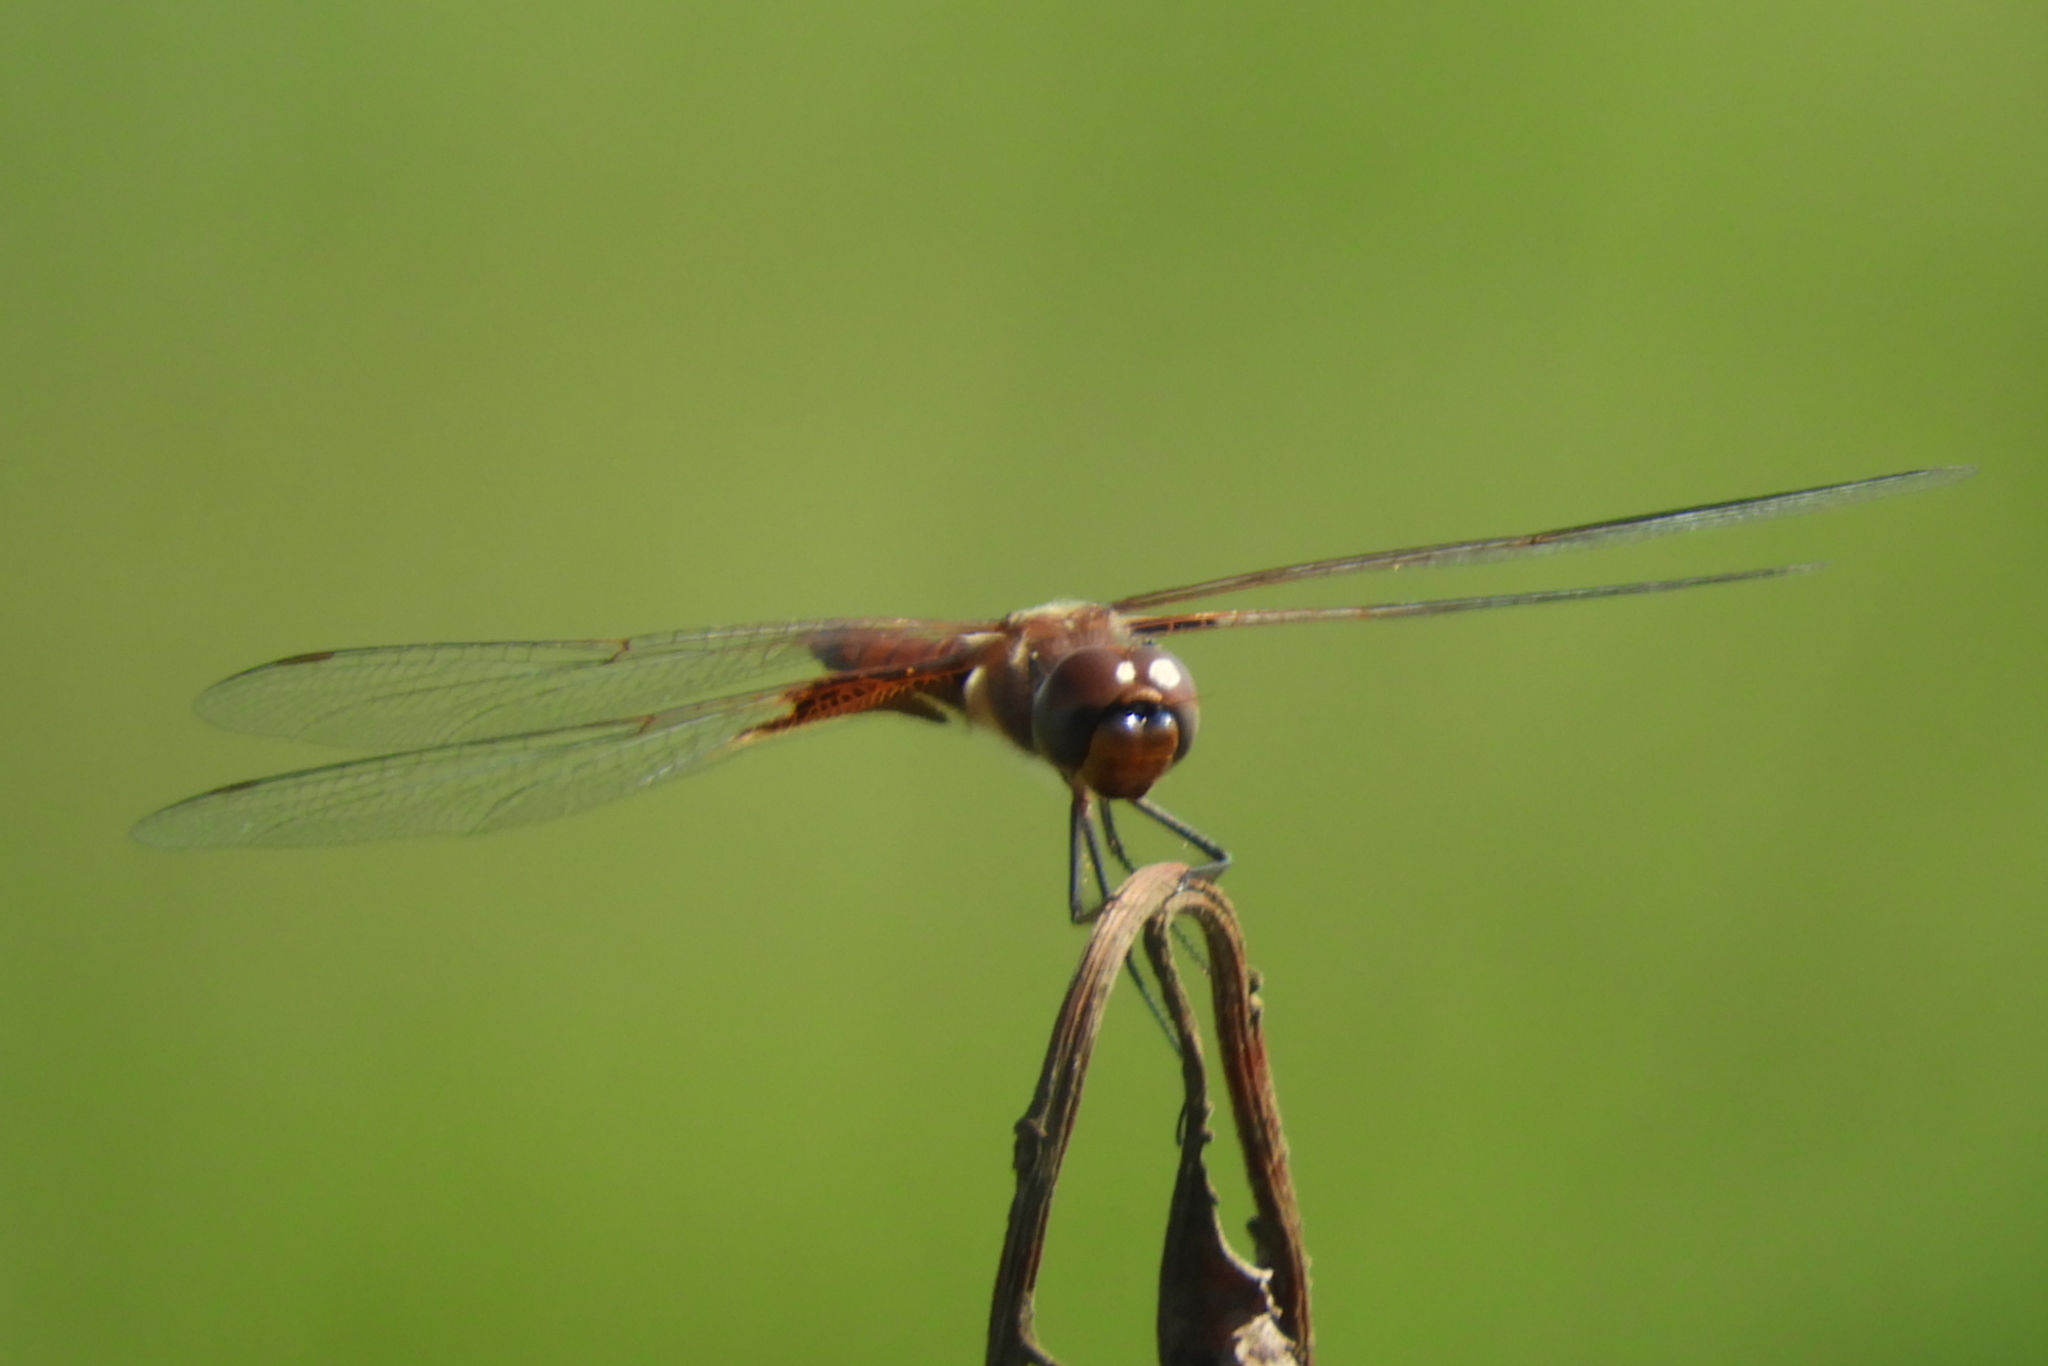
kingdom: Animalia
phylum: Arthropoda
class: Insecta
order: Odonata
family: Libellulidae
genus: Tramea
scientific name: Tramea carolina
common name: Carolina saddlebags
